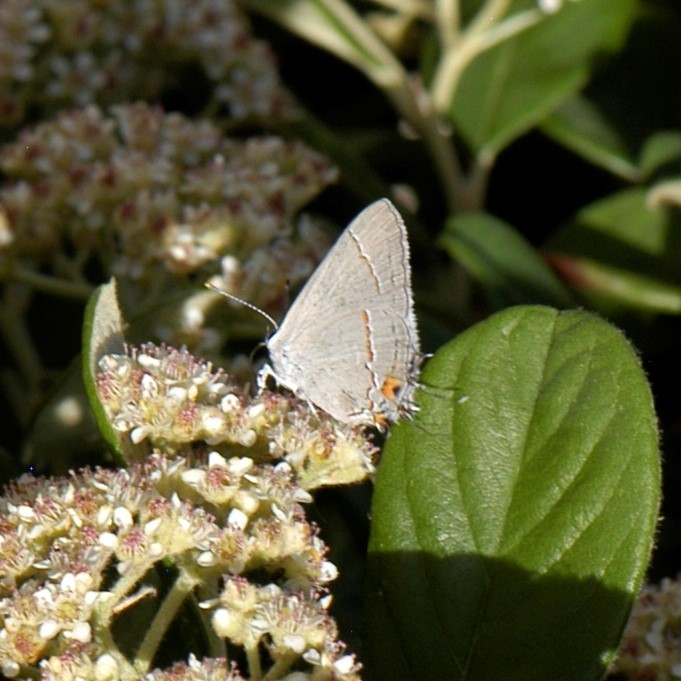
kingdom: Animalia
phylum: Arthropoda
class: Insecta
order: Lepidoptera
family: Lycaenidae
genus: Strymon
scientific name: Strymon melinus
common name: Gray hairstreak
